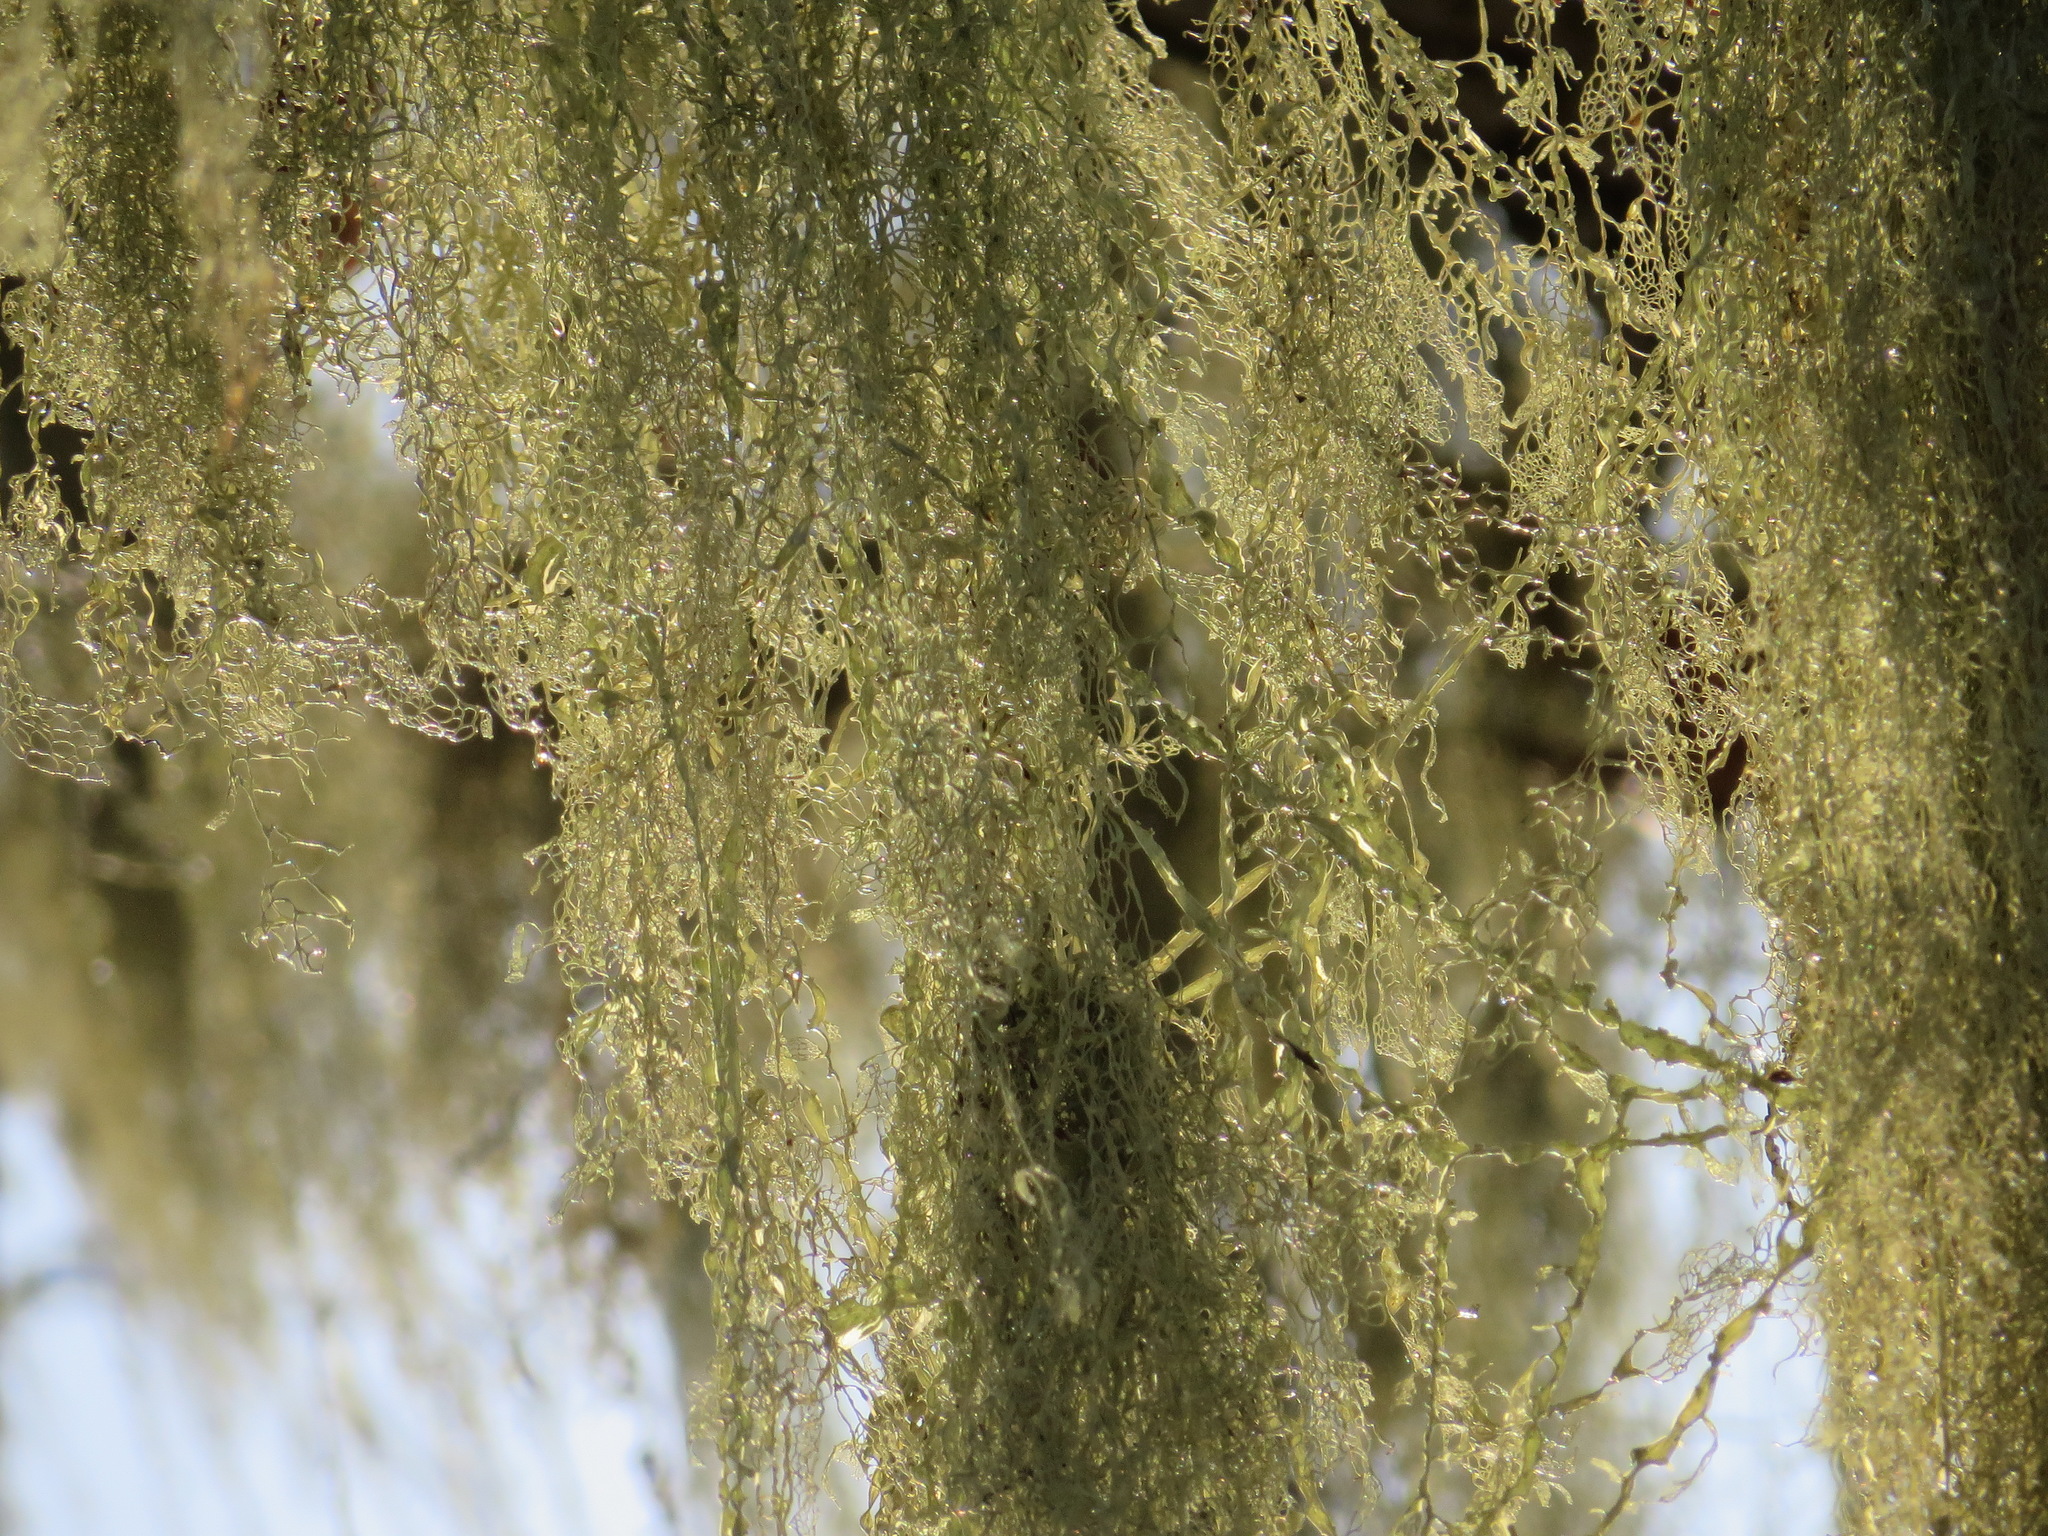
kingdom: Fungi
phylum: Ascomycota
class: Lecanoromycetes
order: Lecanorales
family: Ramalinaceae
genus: Ramalina
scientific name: Ramalina menziesii
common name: Lace lichen
